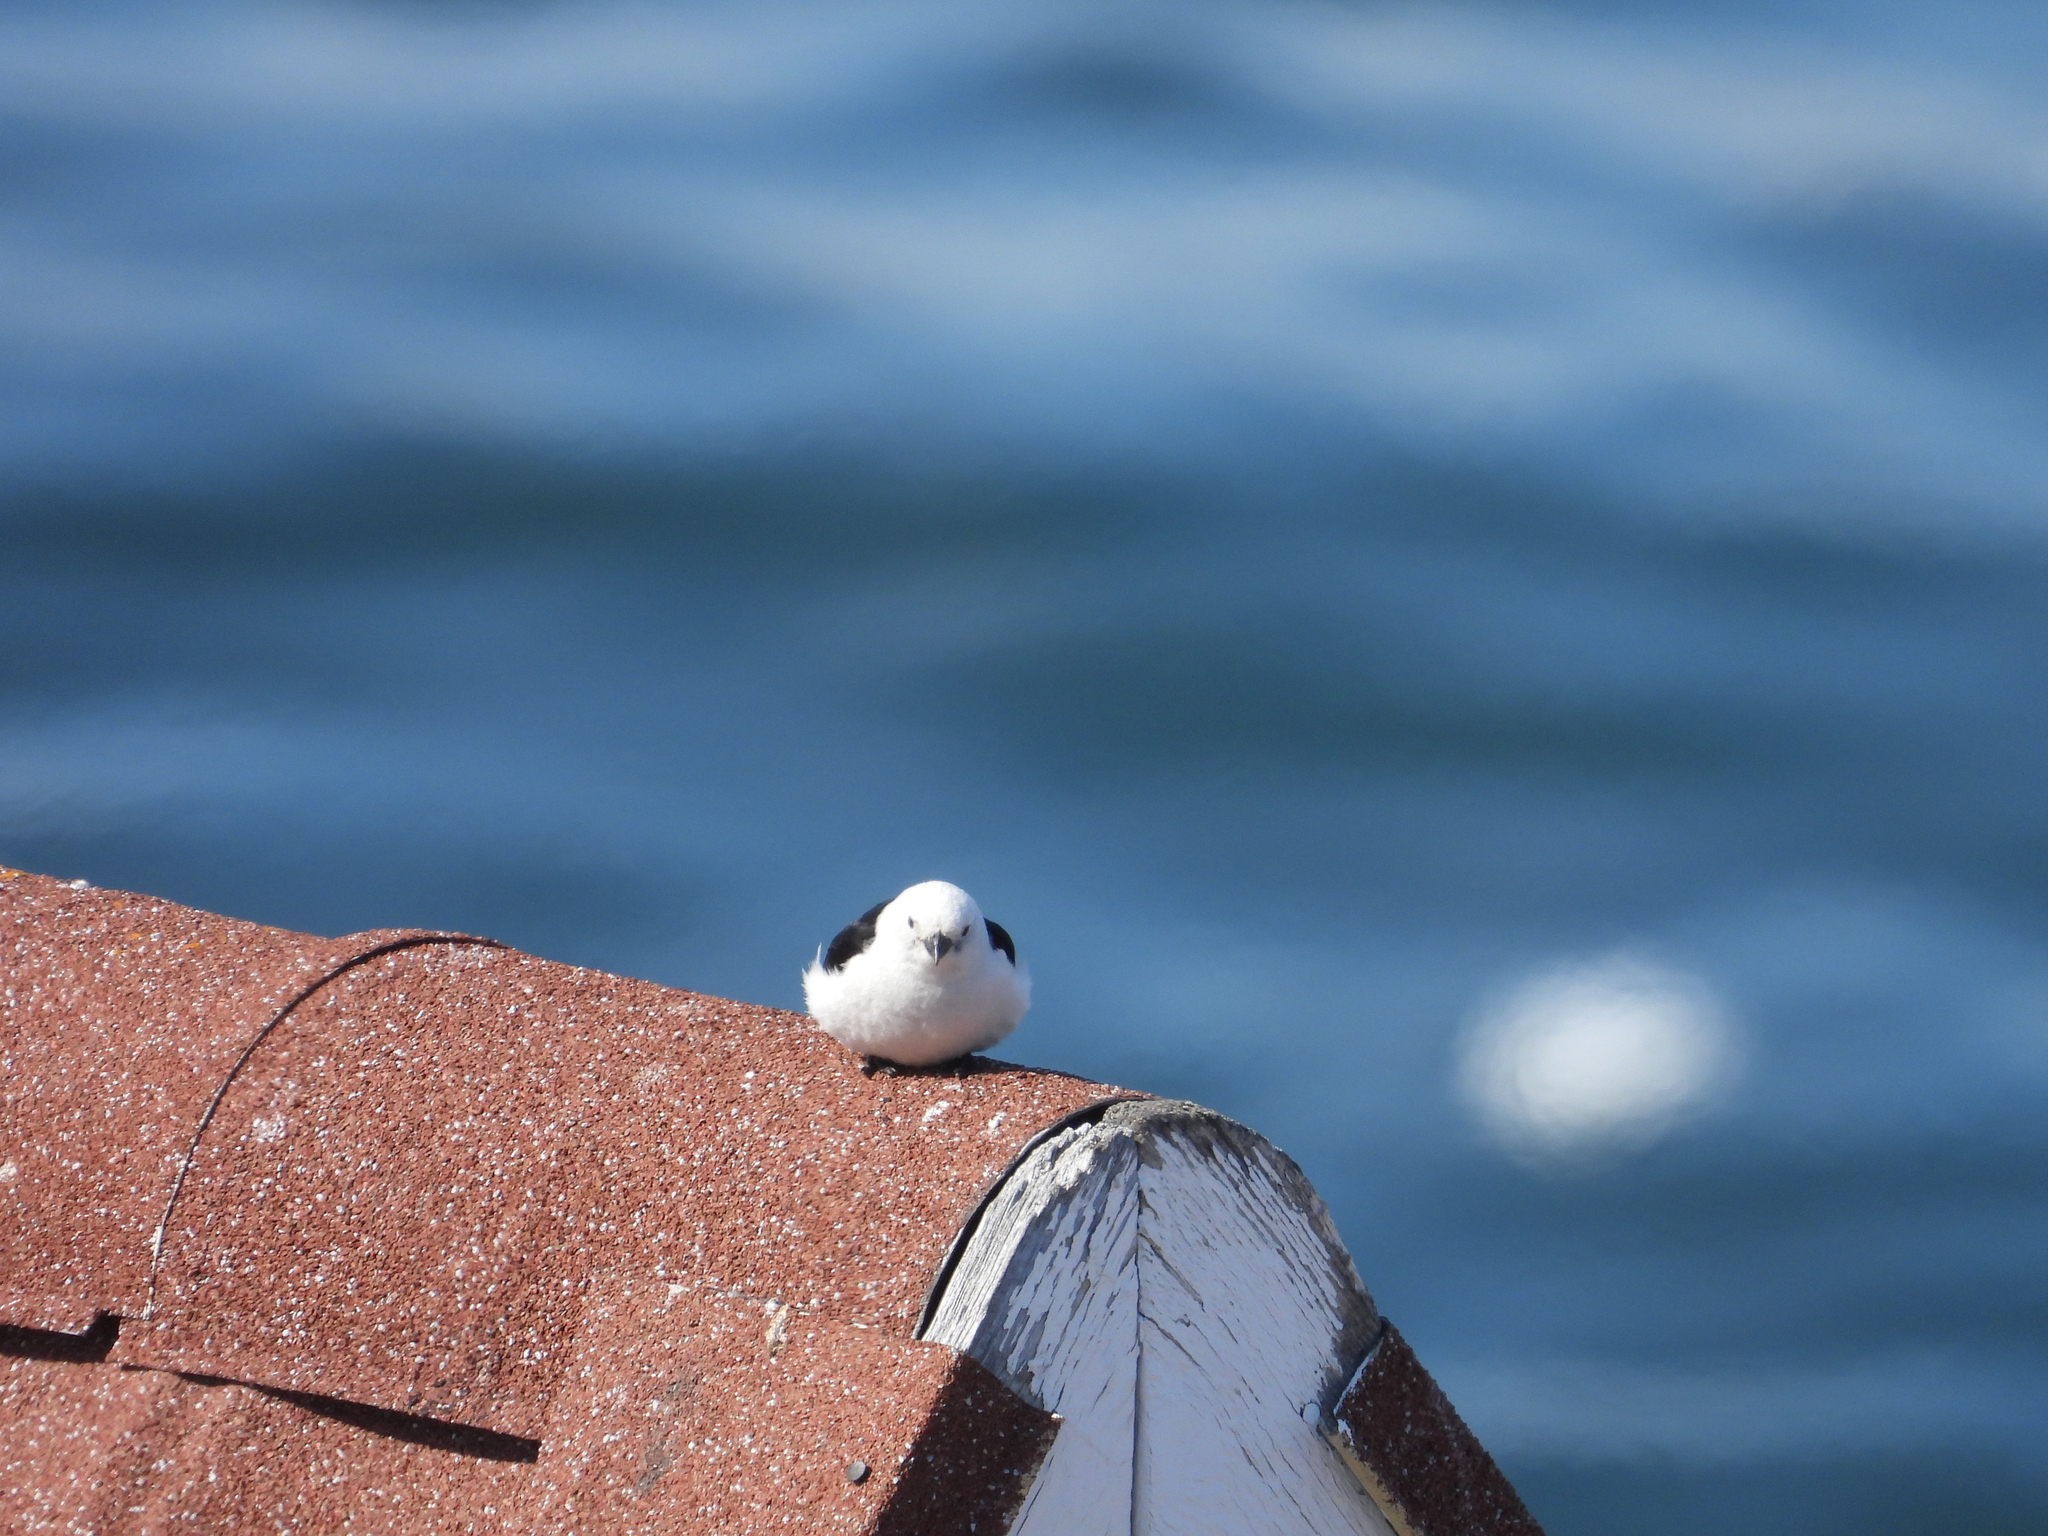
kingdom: Animalia
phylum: Chordata
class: Aves
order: Passeriformes
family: Calcariidae
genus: Plectrophenax
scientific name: Plectrophenax nivalis
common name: Snow bunting
